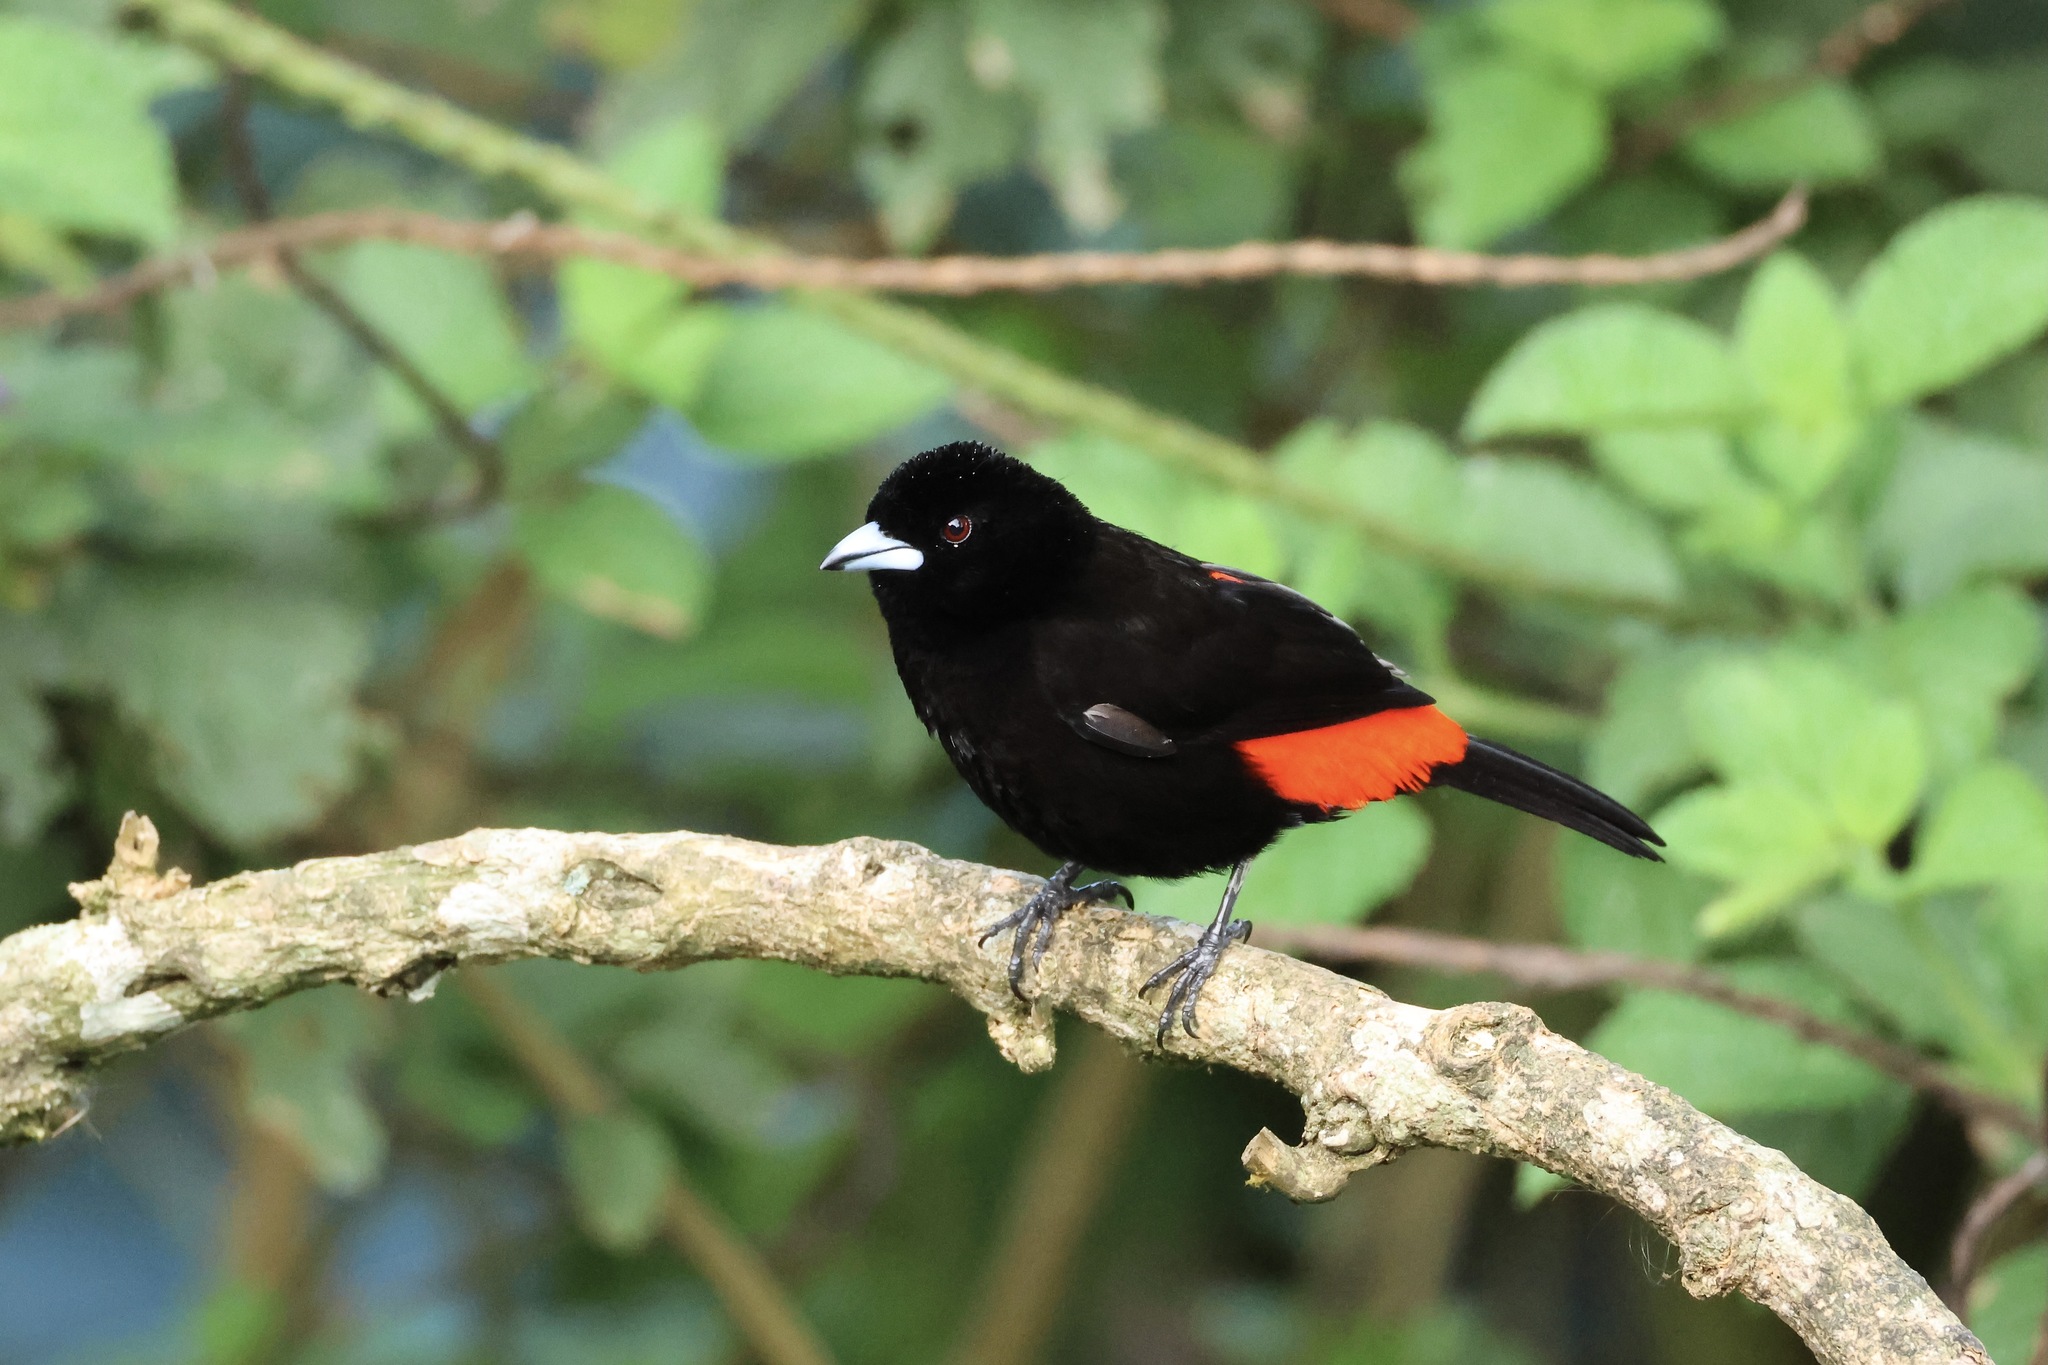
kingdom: Animalia
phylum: Chordata
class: Aves
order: Passeriformes
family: Thraupidae
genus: Ramphocelus
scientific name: Ramphocelus passerinii
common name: Passerini's tanager
